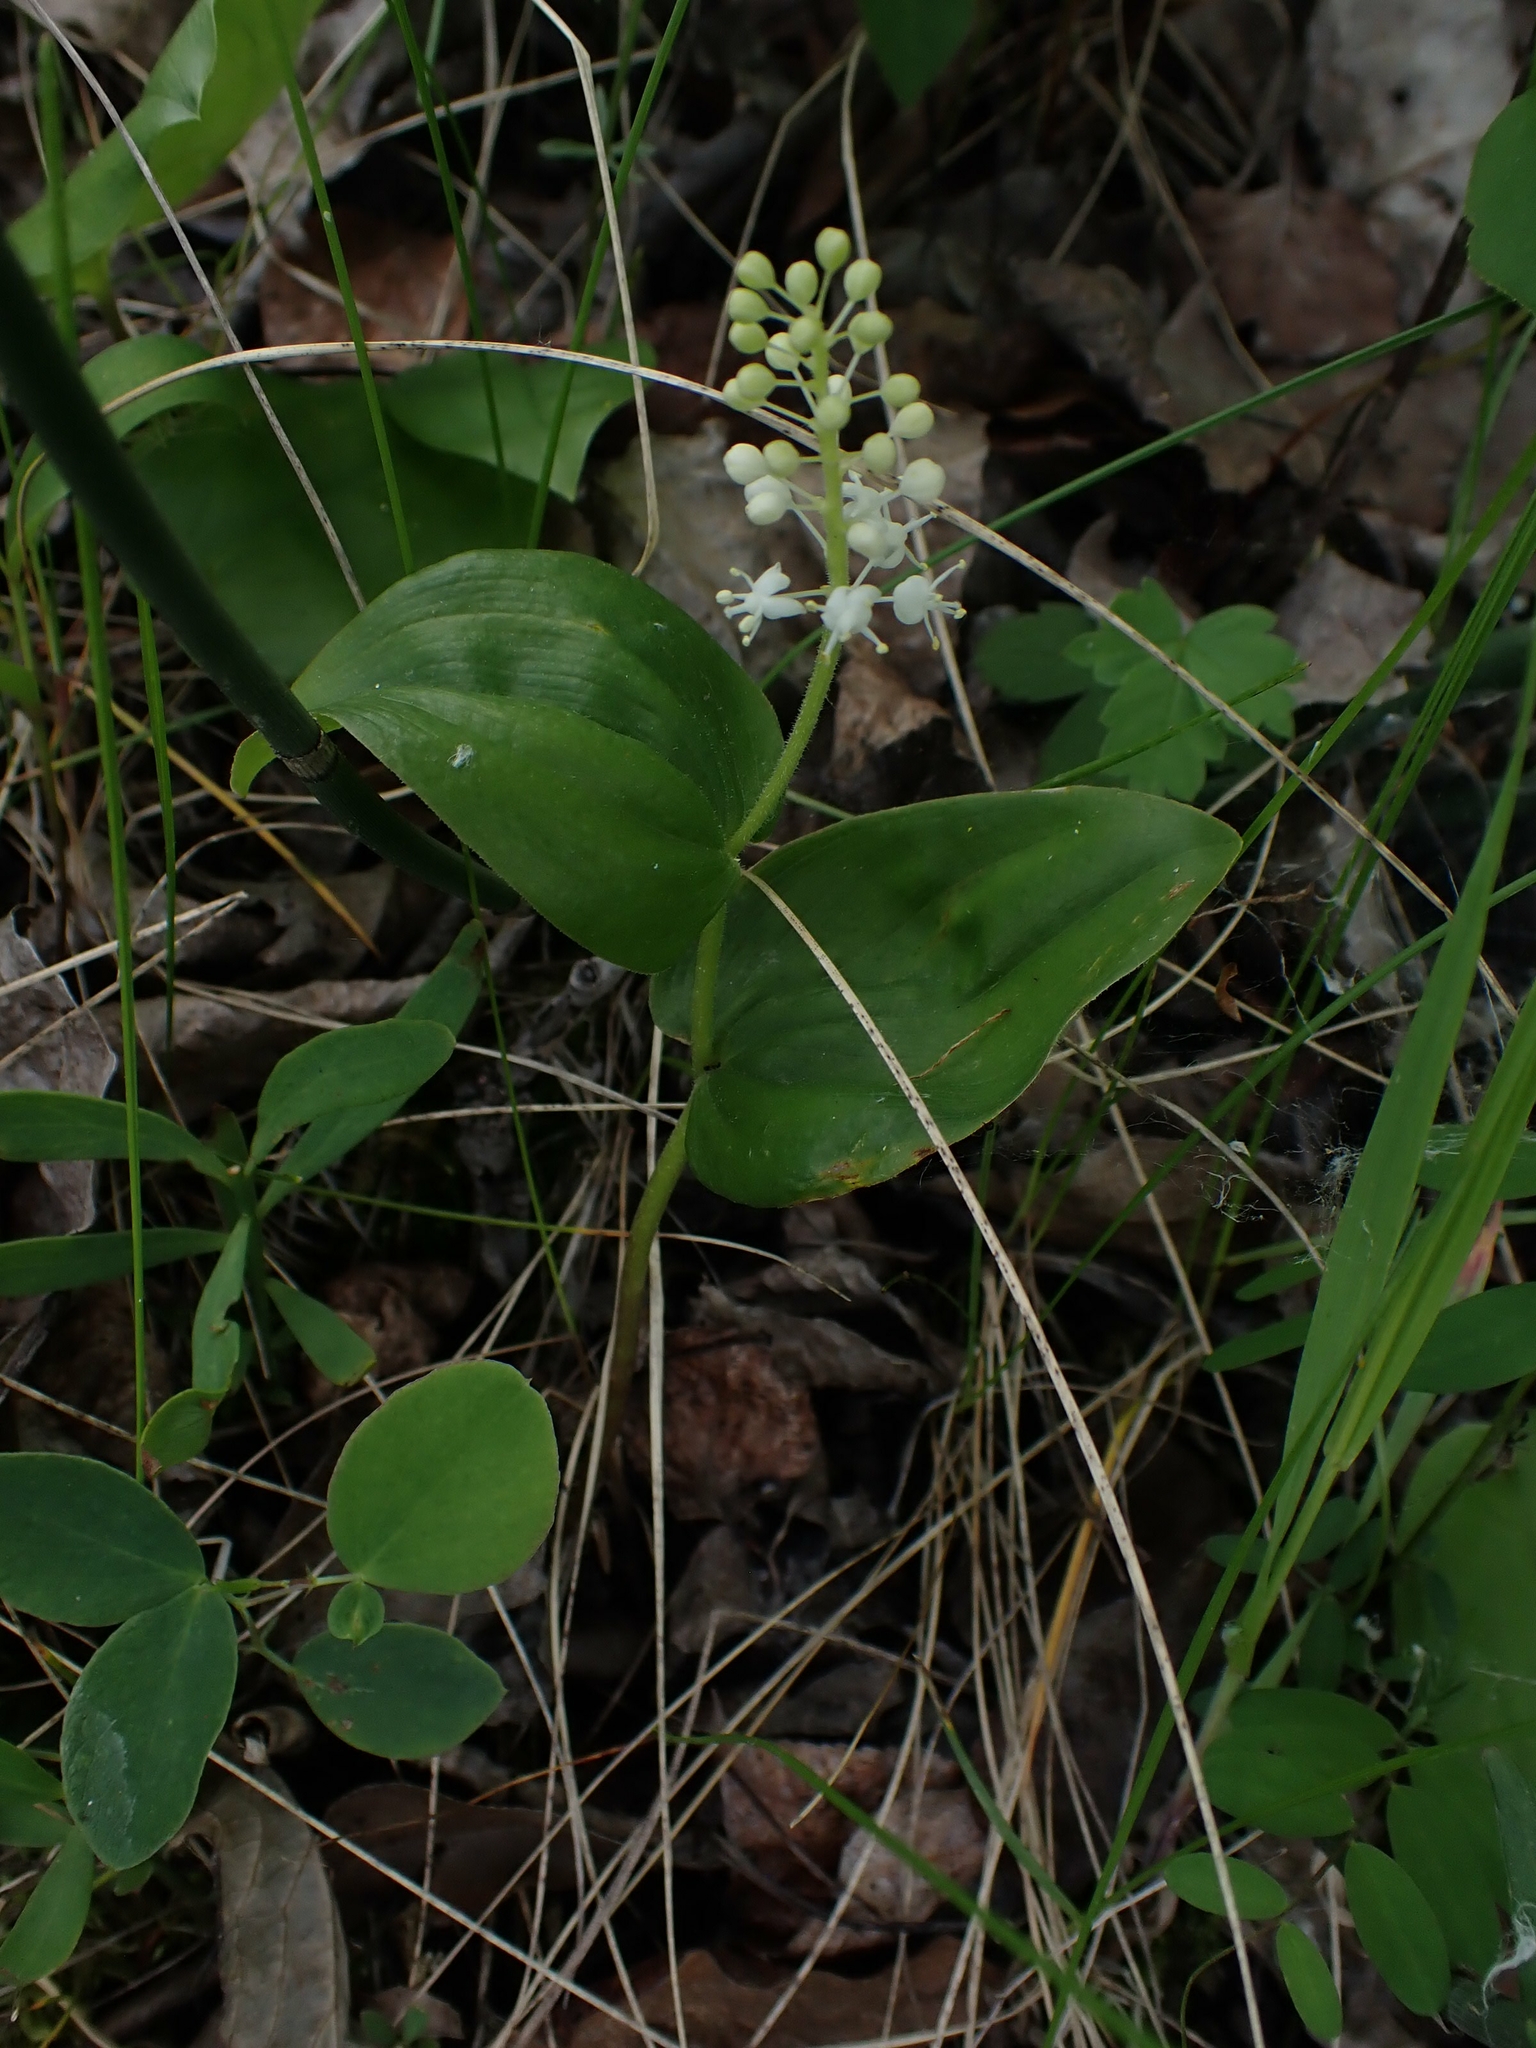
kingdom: Plantae
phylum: Tracheophyta
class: Liliopsida
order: Asparagales
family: Asparagaceae
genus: Maianthemum
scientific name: Maianthemum canadense
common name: False lily-of-the-valley
